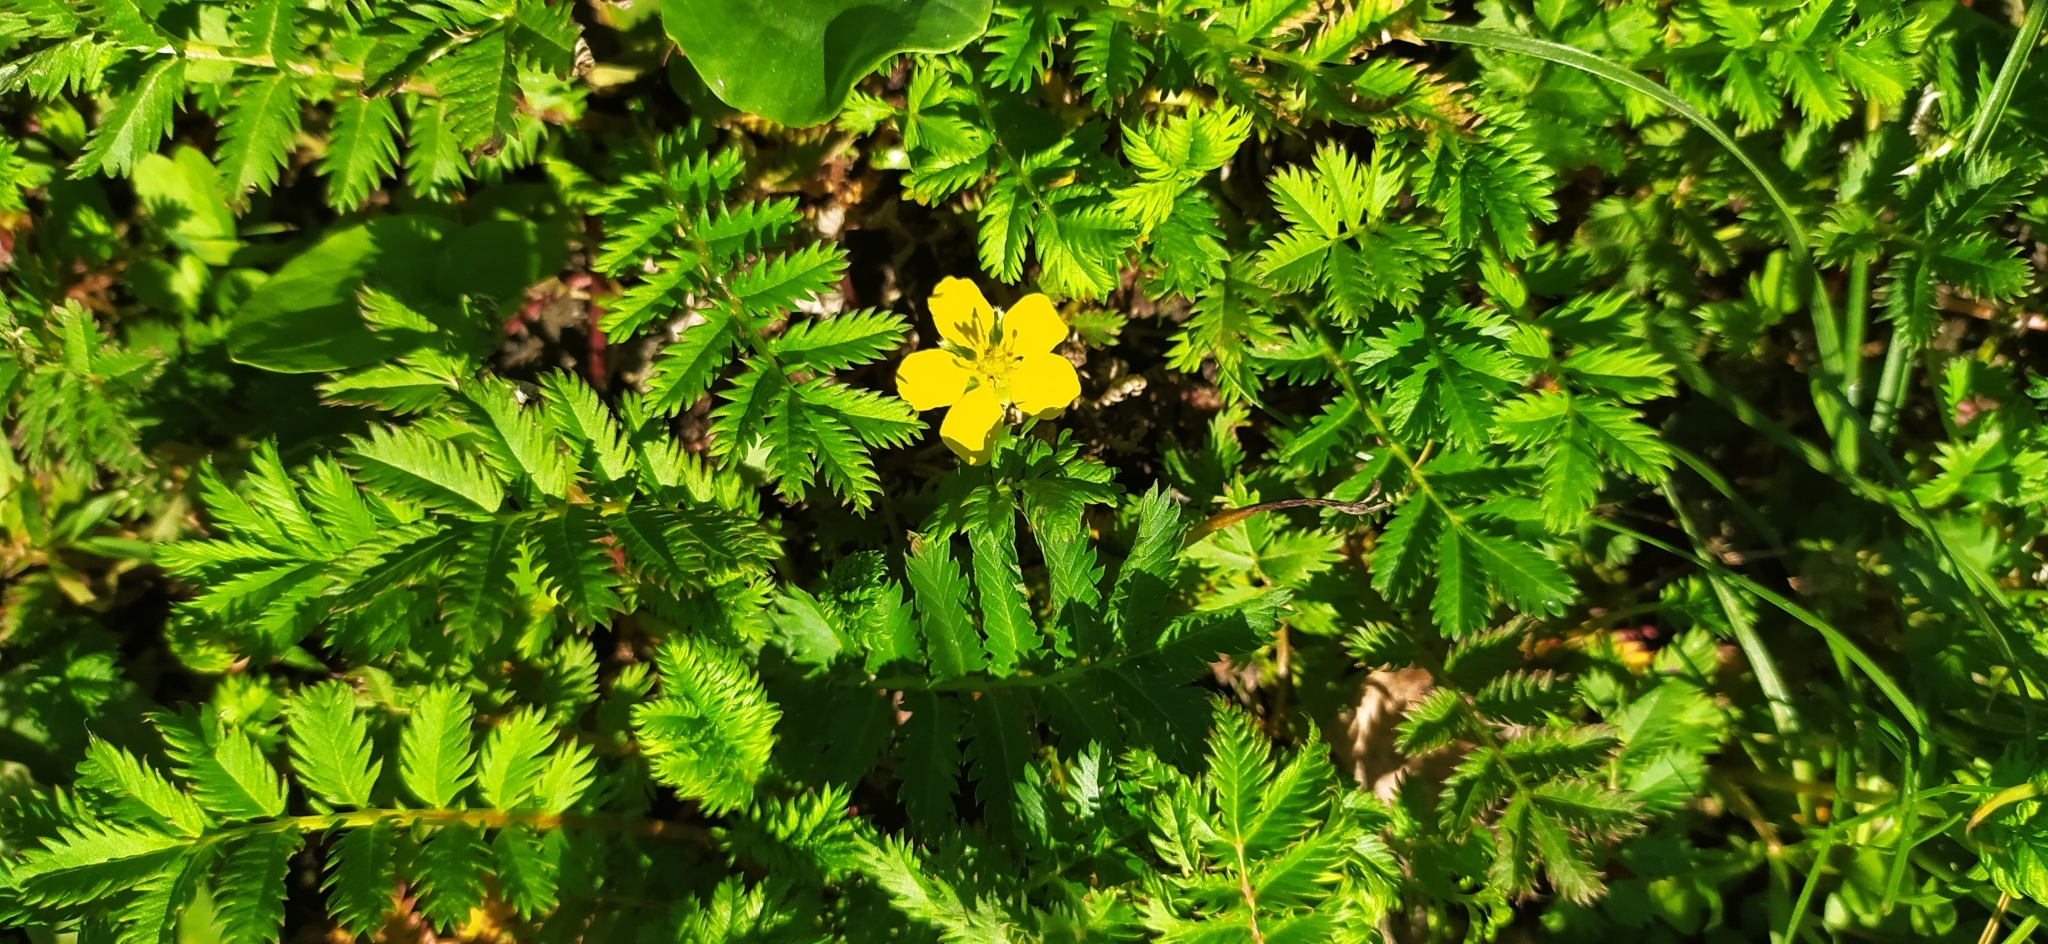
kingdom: Plantae
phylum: Tracheophyta
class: Magnoliopsida
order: Rosales
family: Rosaceae
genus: Argentina
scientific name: Argentina anserina
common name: Common silverweed
